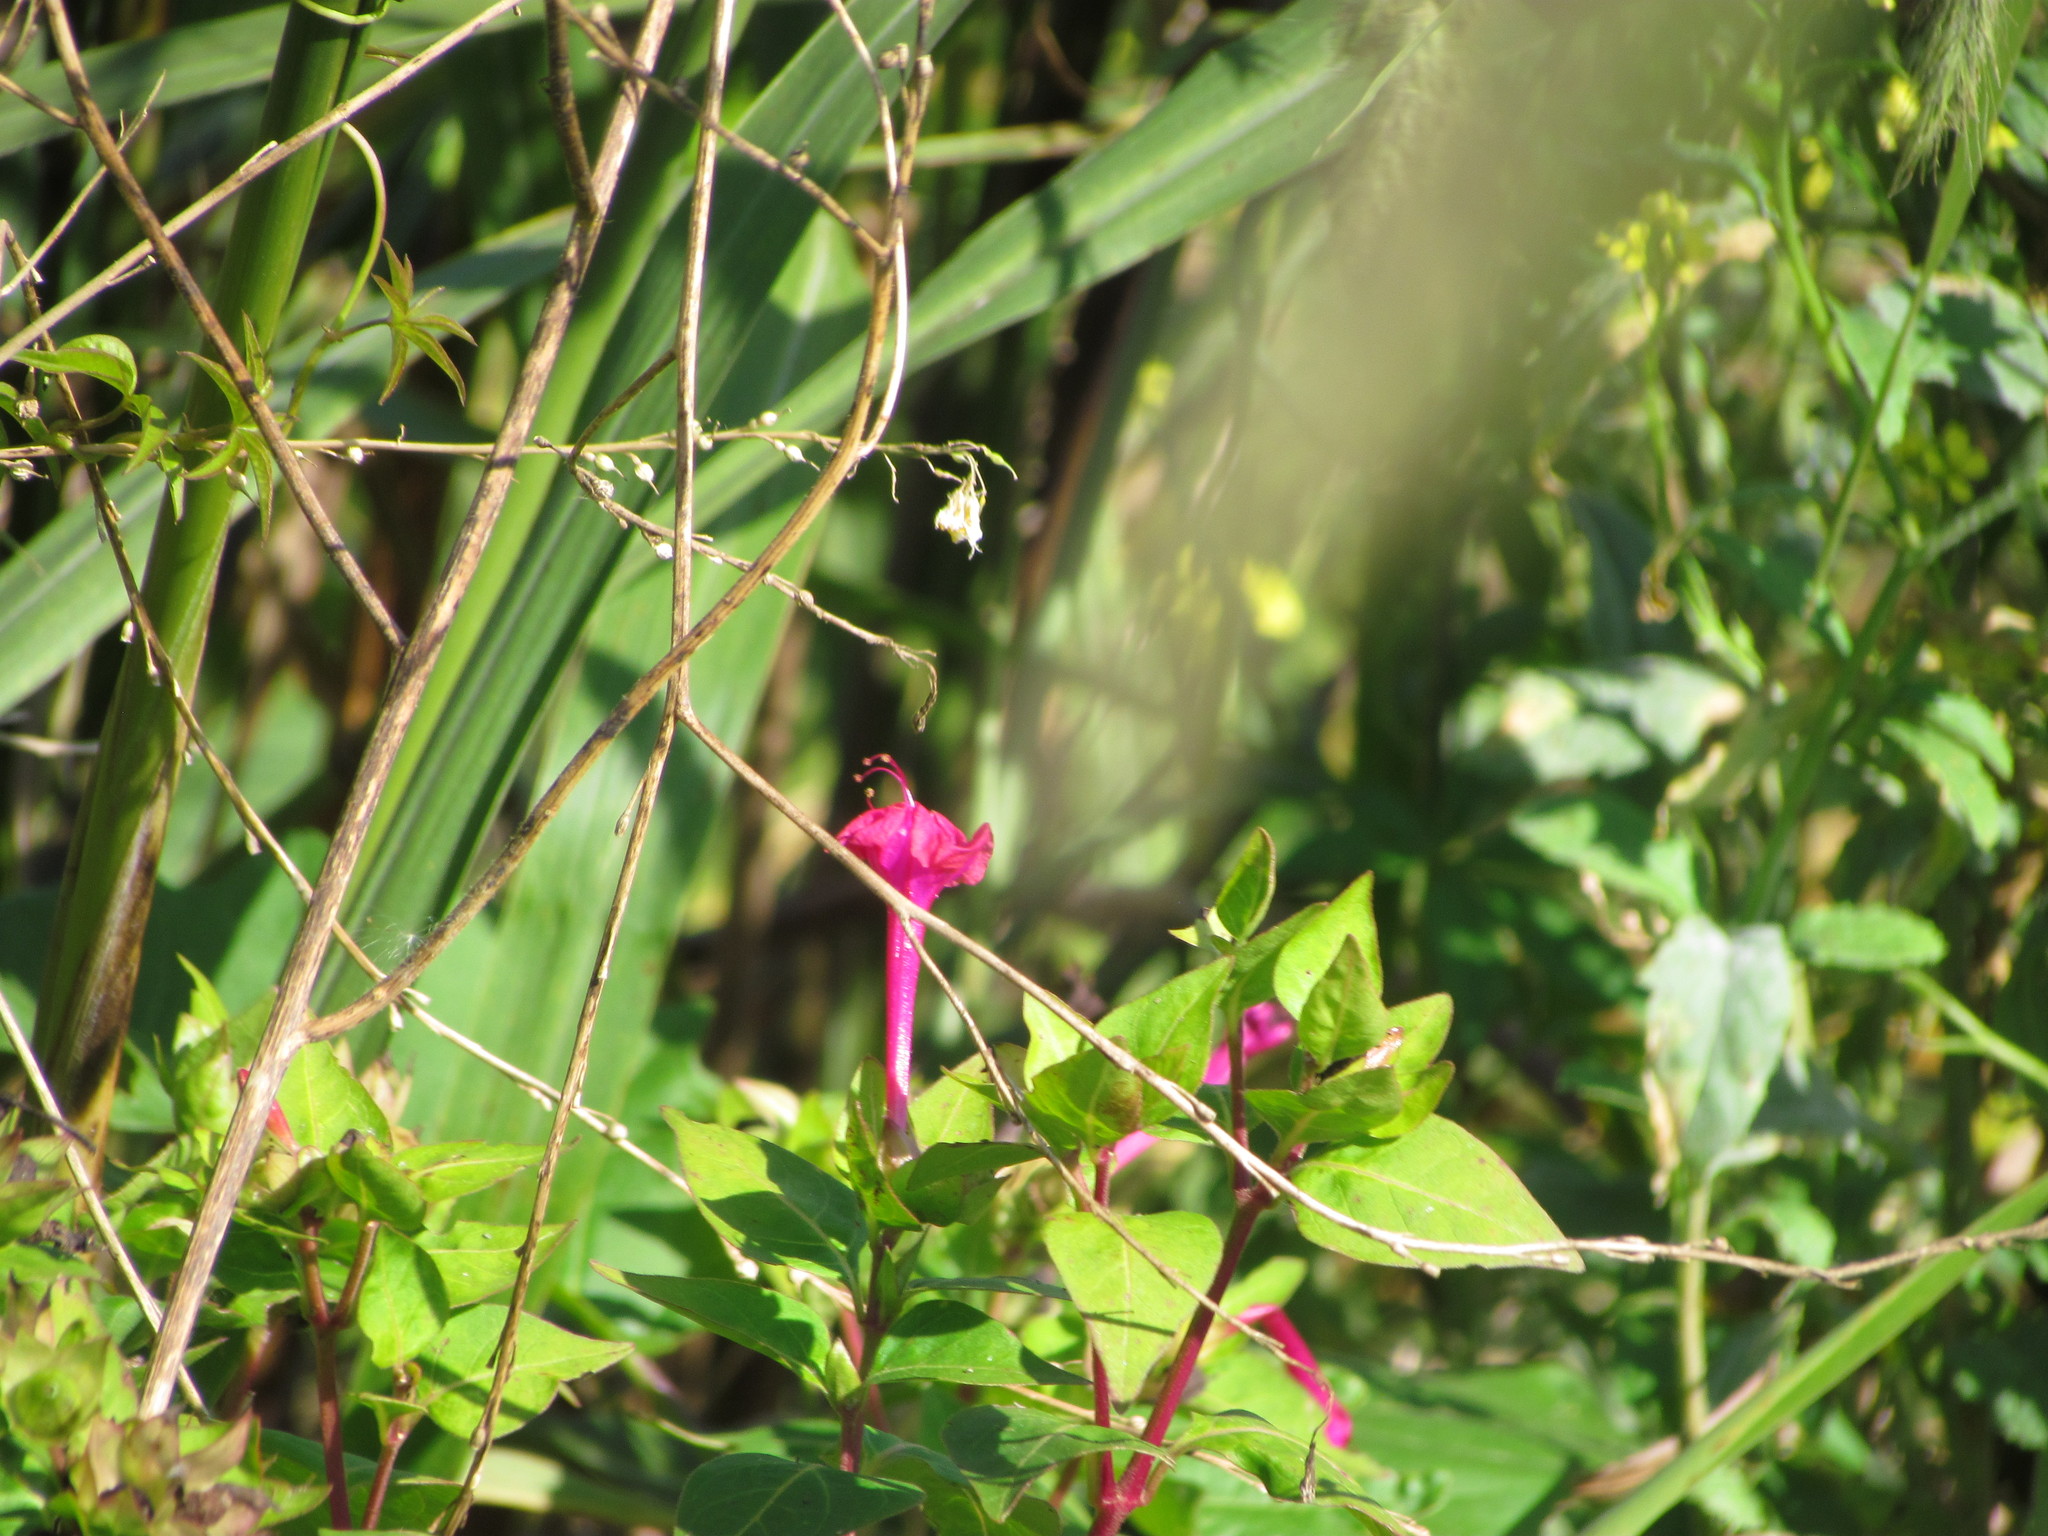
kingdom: Plantae
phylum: Tracheophyta
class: Magnoliopsida
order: Caryophyllales
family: Nyctaginaceae
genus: Mirabilis
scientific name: Mirabilis jalapa
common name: Marvel-of-peru
